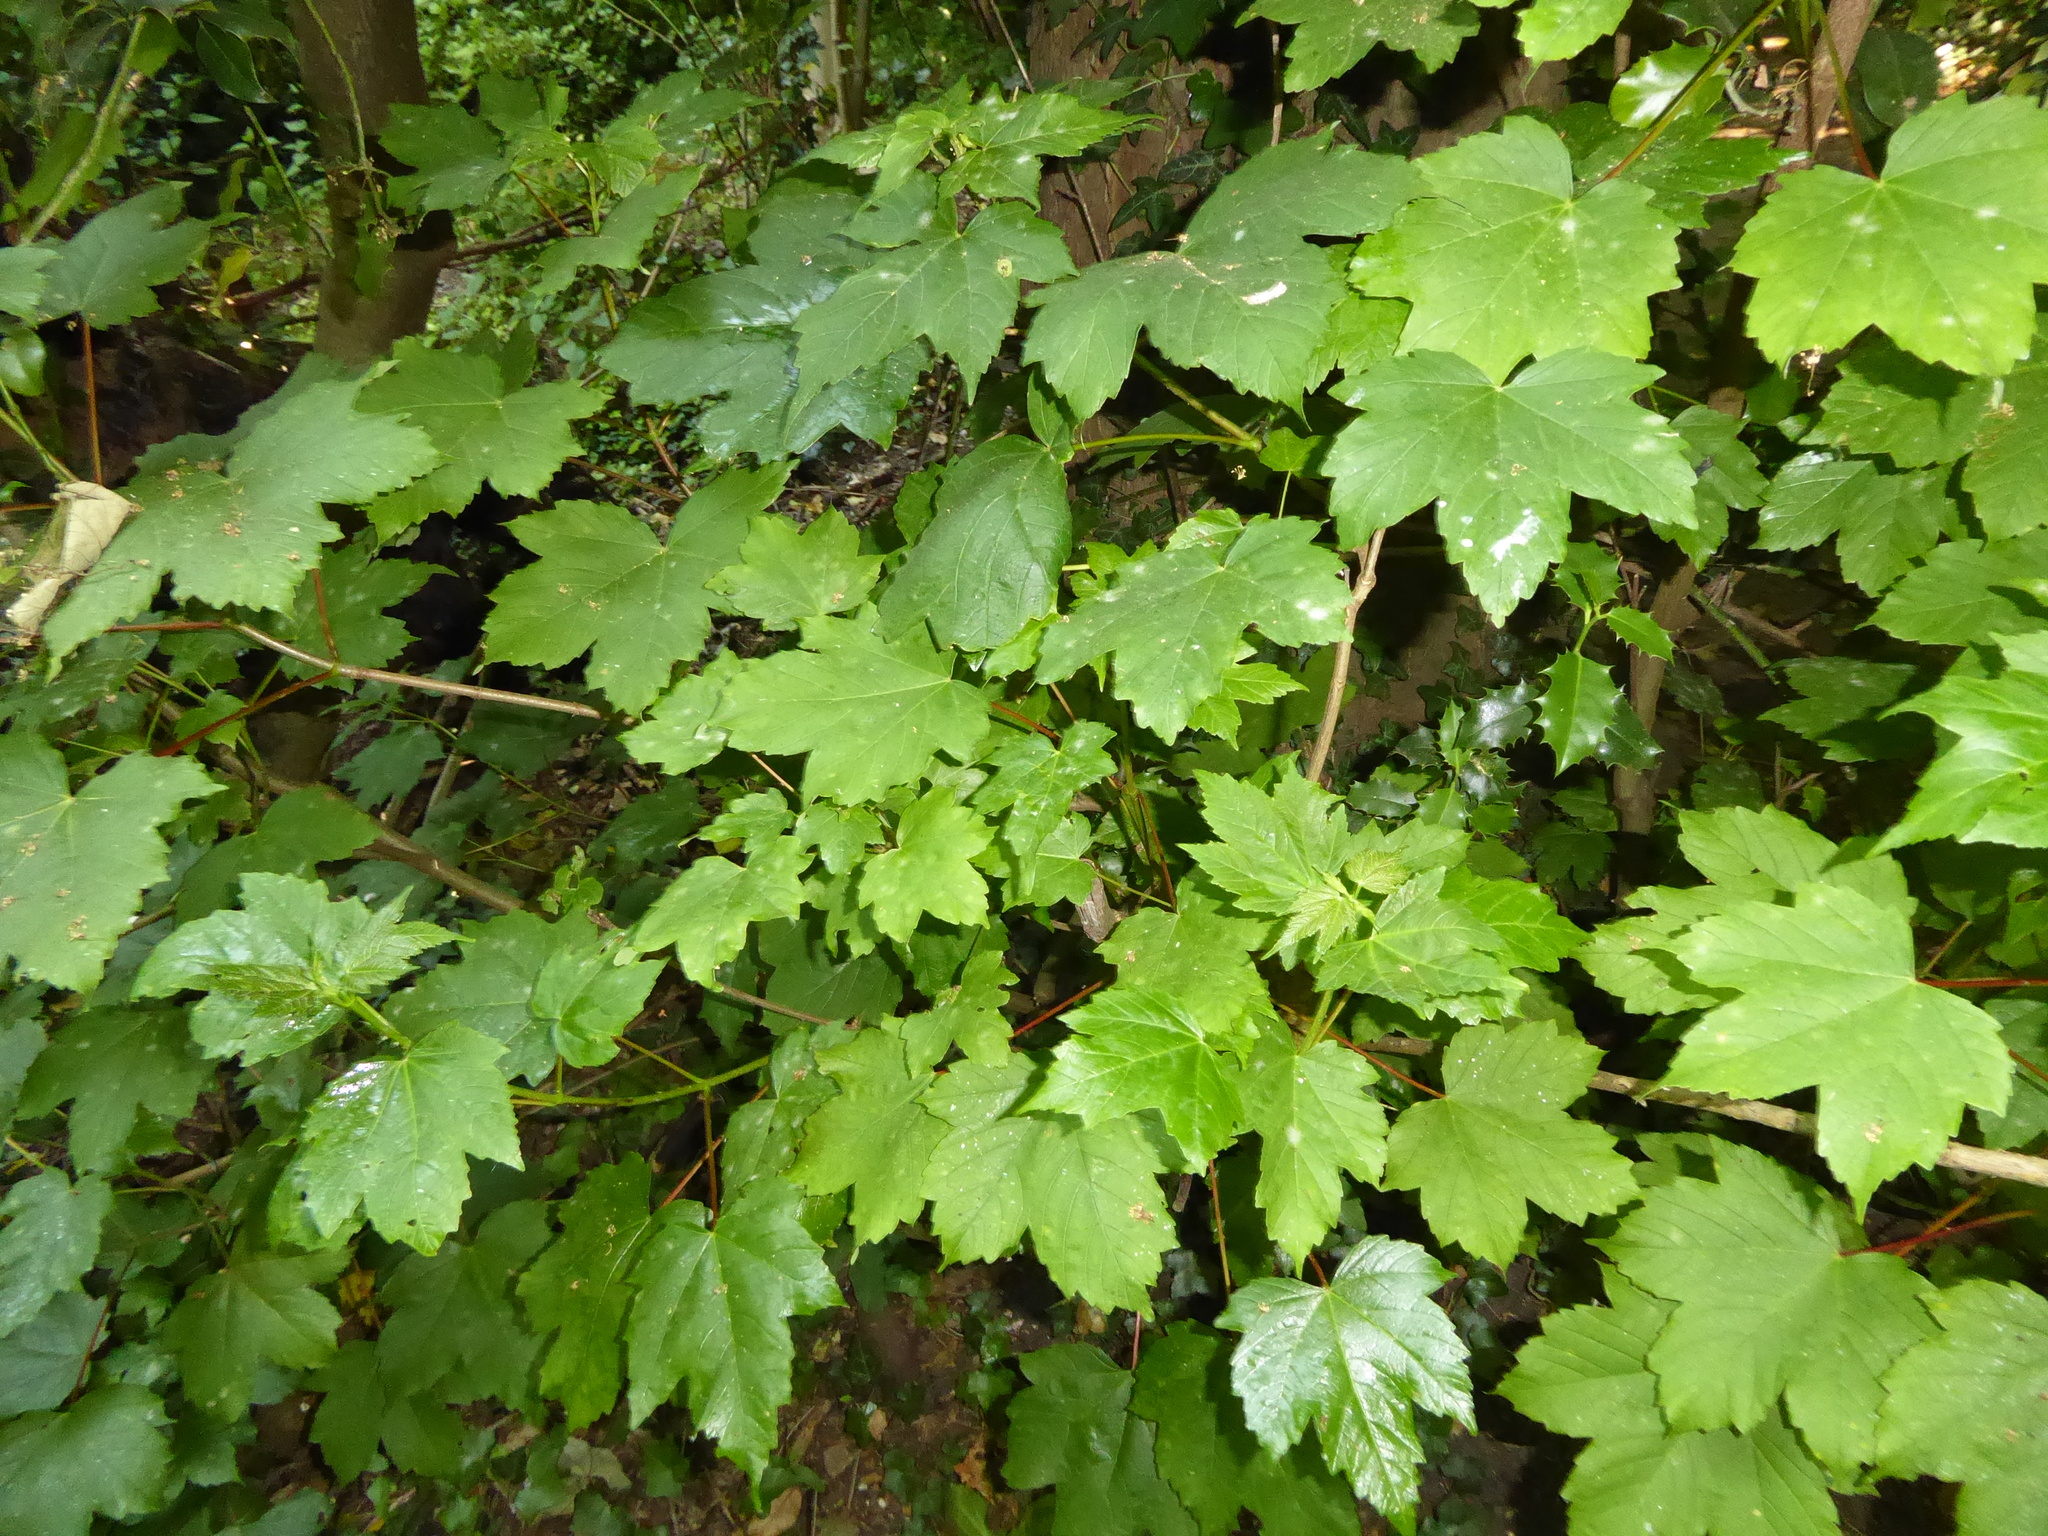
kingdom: Plantae
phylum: Tracheophyta
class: Magnoliopsida
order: Sapindales
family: Sapindaceae
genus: Acer
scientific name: Acer pseudoplatanus
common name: Sycamore
